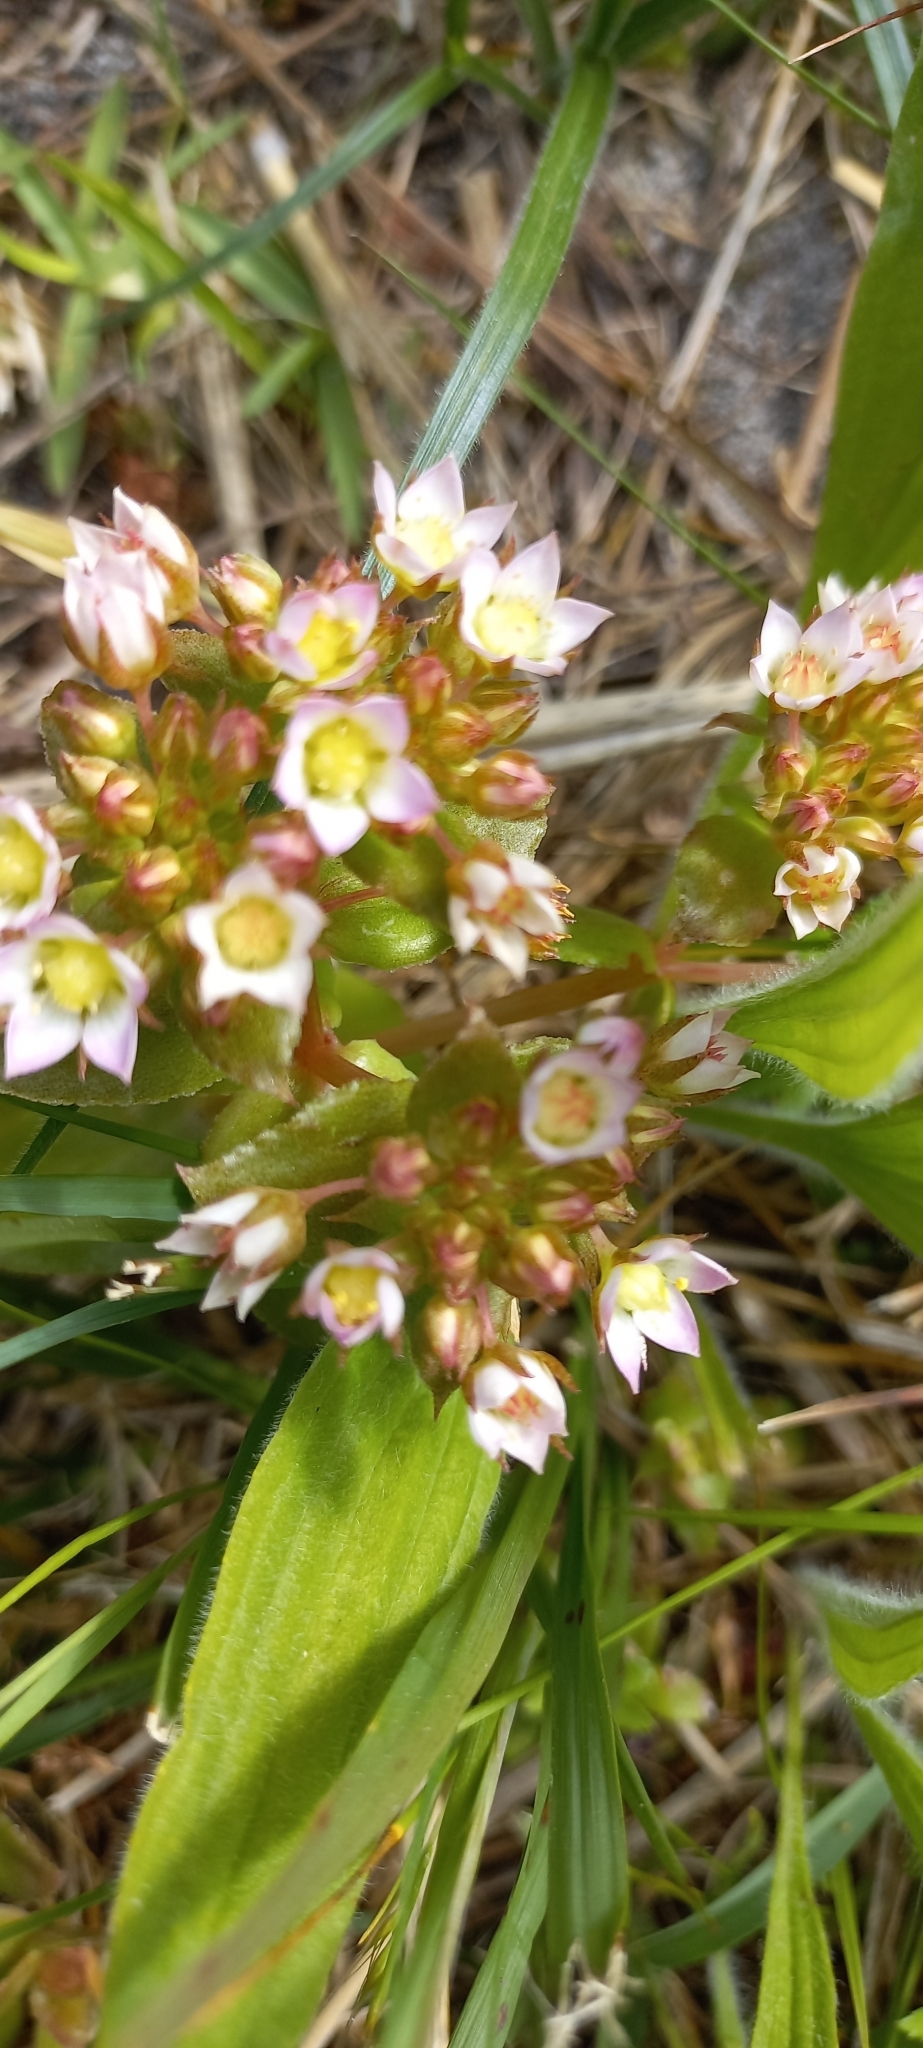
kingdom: Plantae
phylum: Tracheophyta
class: Magnoliopsida
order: Saxifragales
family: Crassulaceae
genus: Crassula
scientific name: Crassula pellucida
